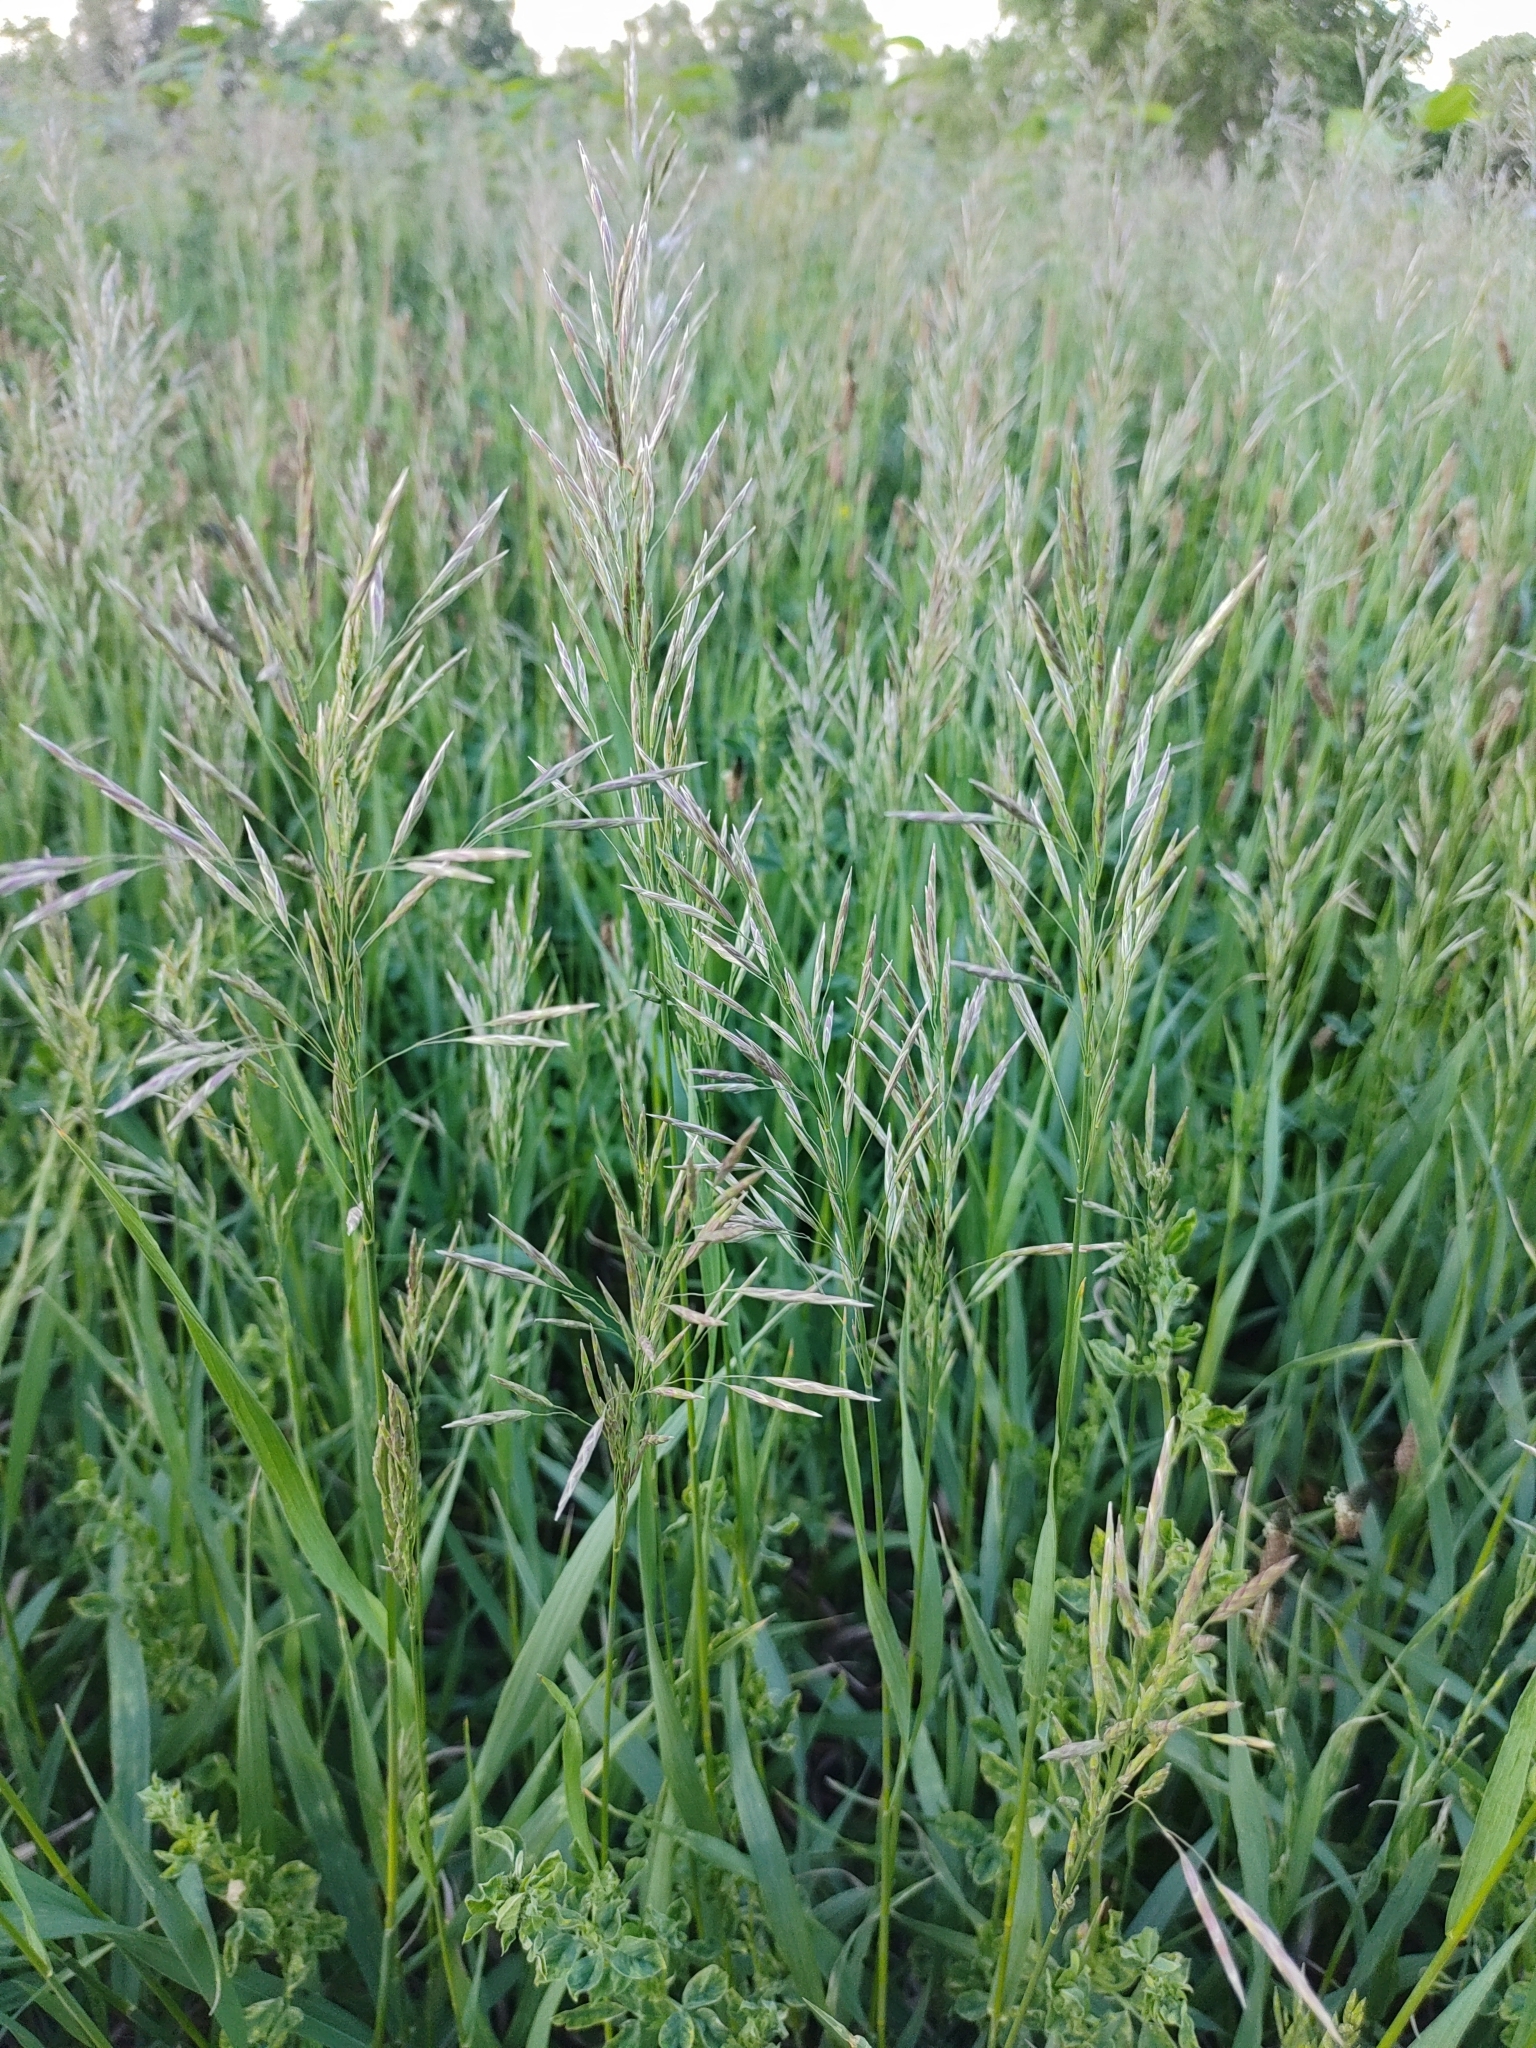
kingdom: Plantae
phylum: Tracheophyta
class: Liliopsida
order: Poales
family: Poaceae
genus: Bromus
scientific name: Bromus inermis
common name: Smooth brome
